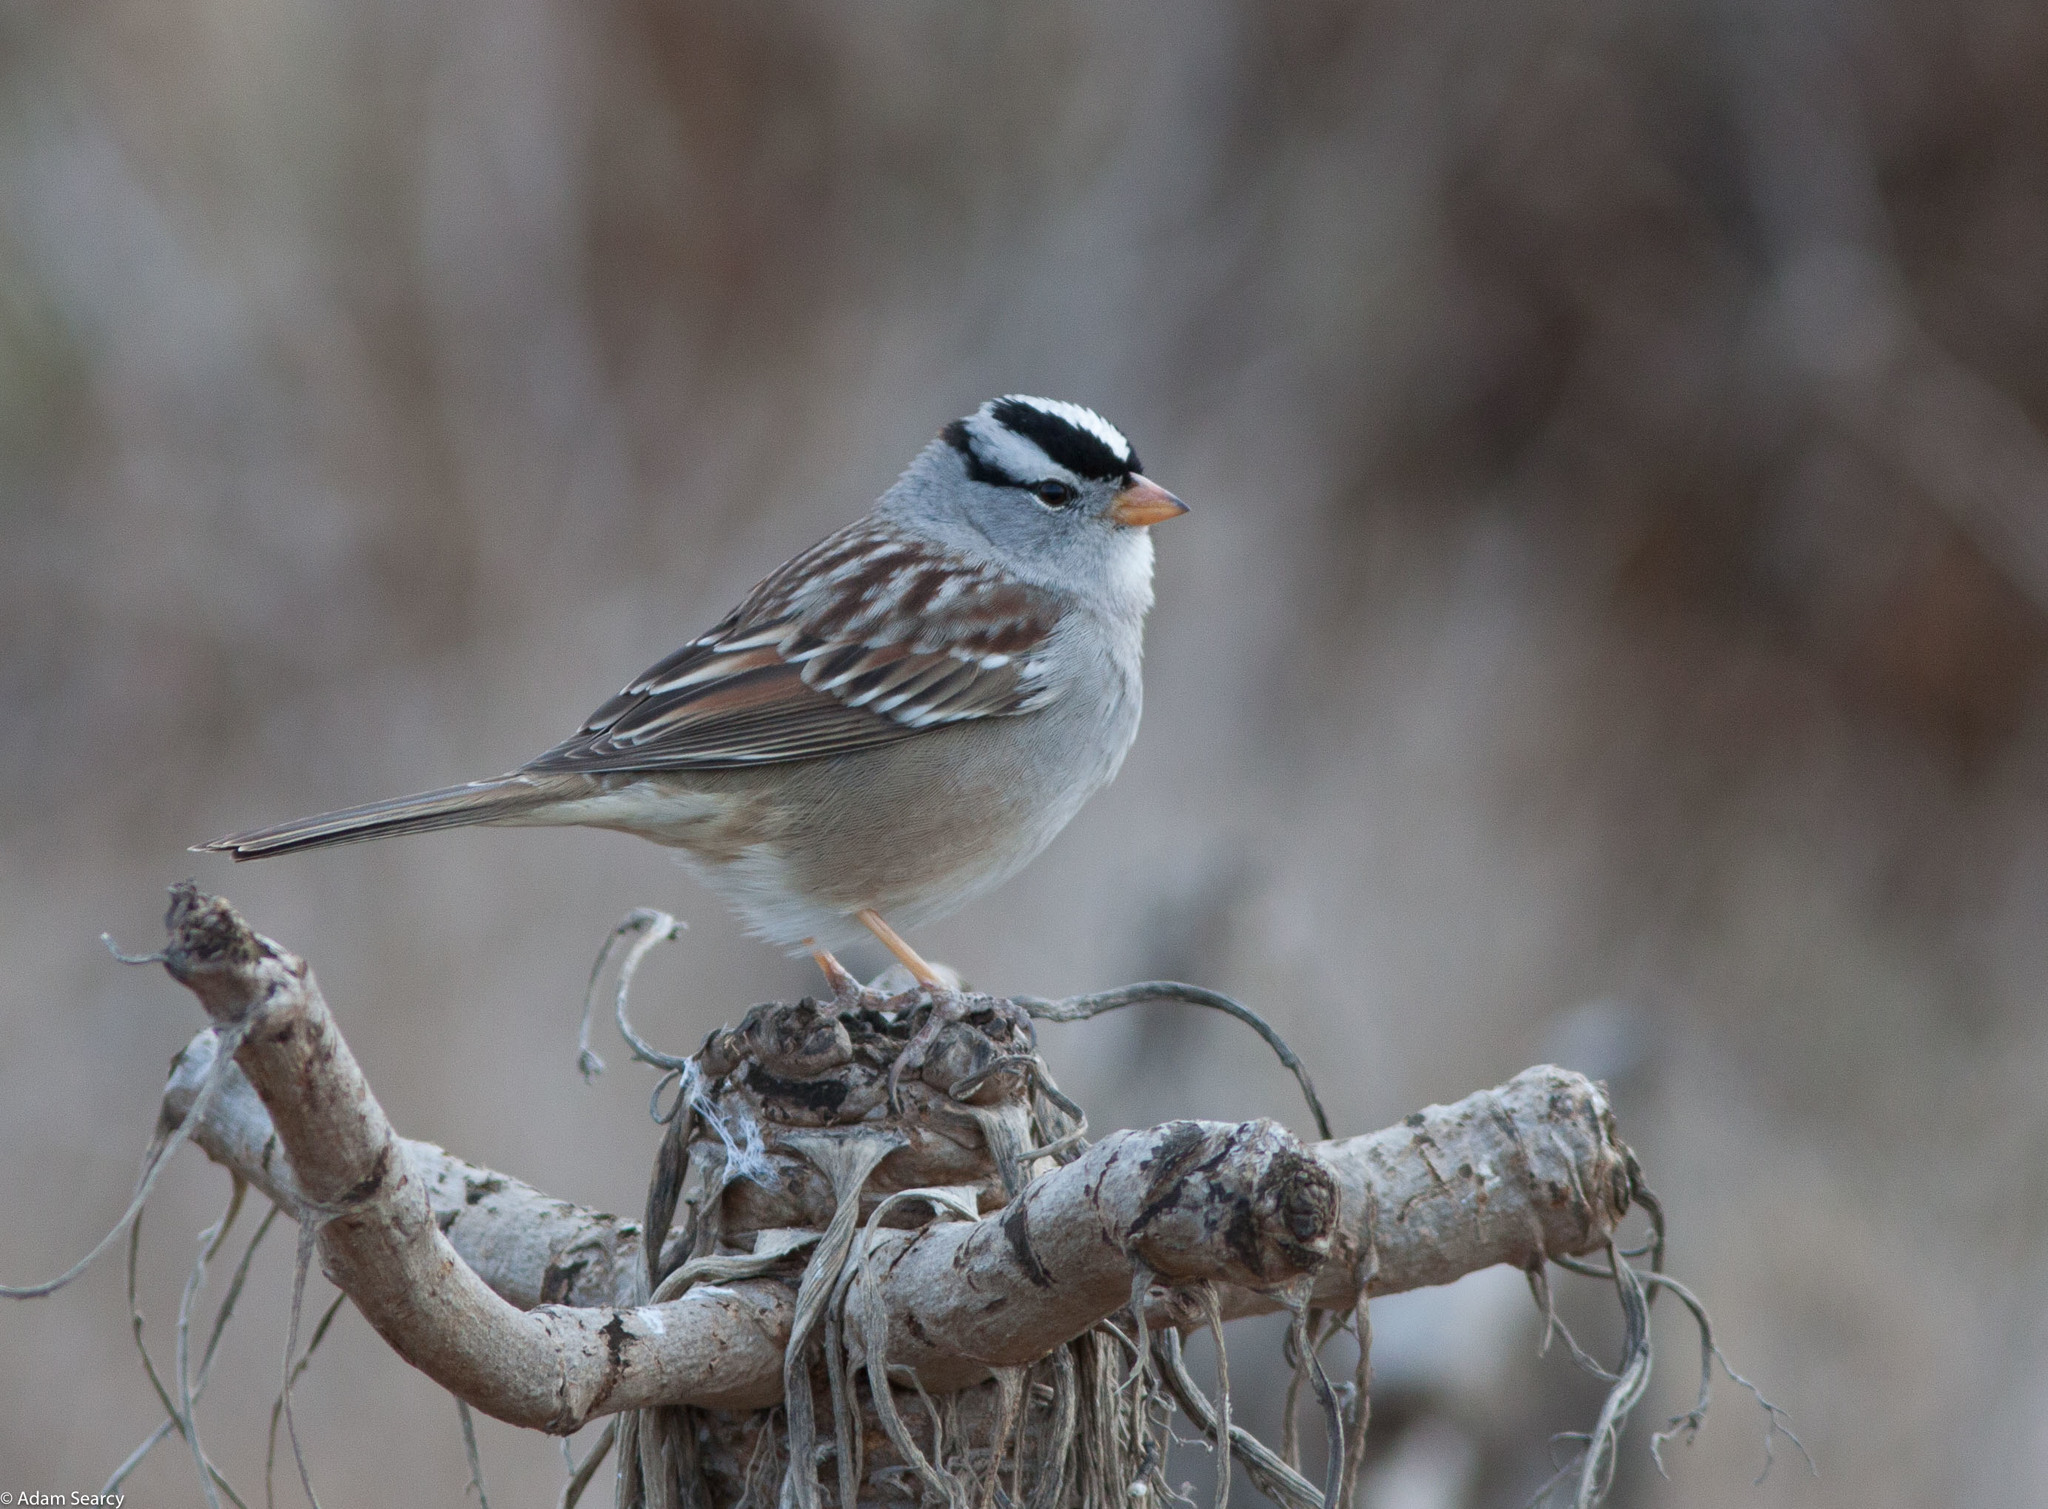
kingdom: Animalia
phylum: Chordata
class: Aves
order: Passeriformes
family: Passerellidae
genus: Zonotrichia
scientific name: Zonotrichia leucophrys
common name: White-crowned sparrow
